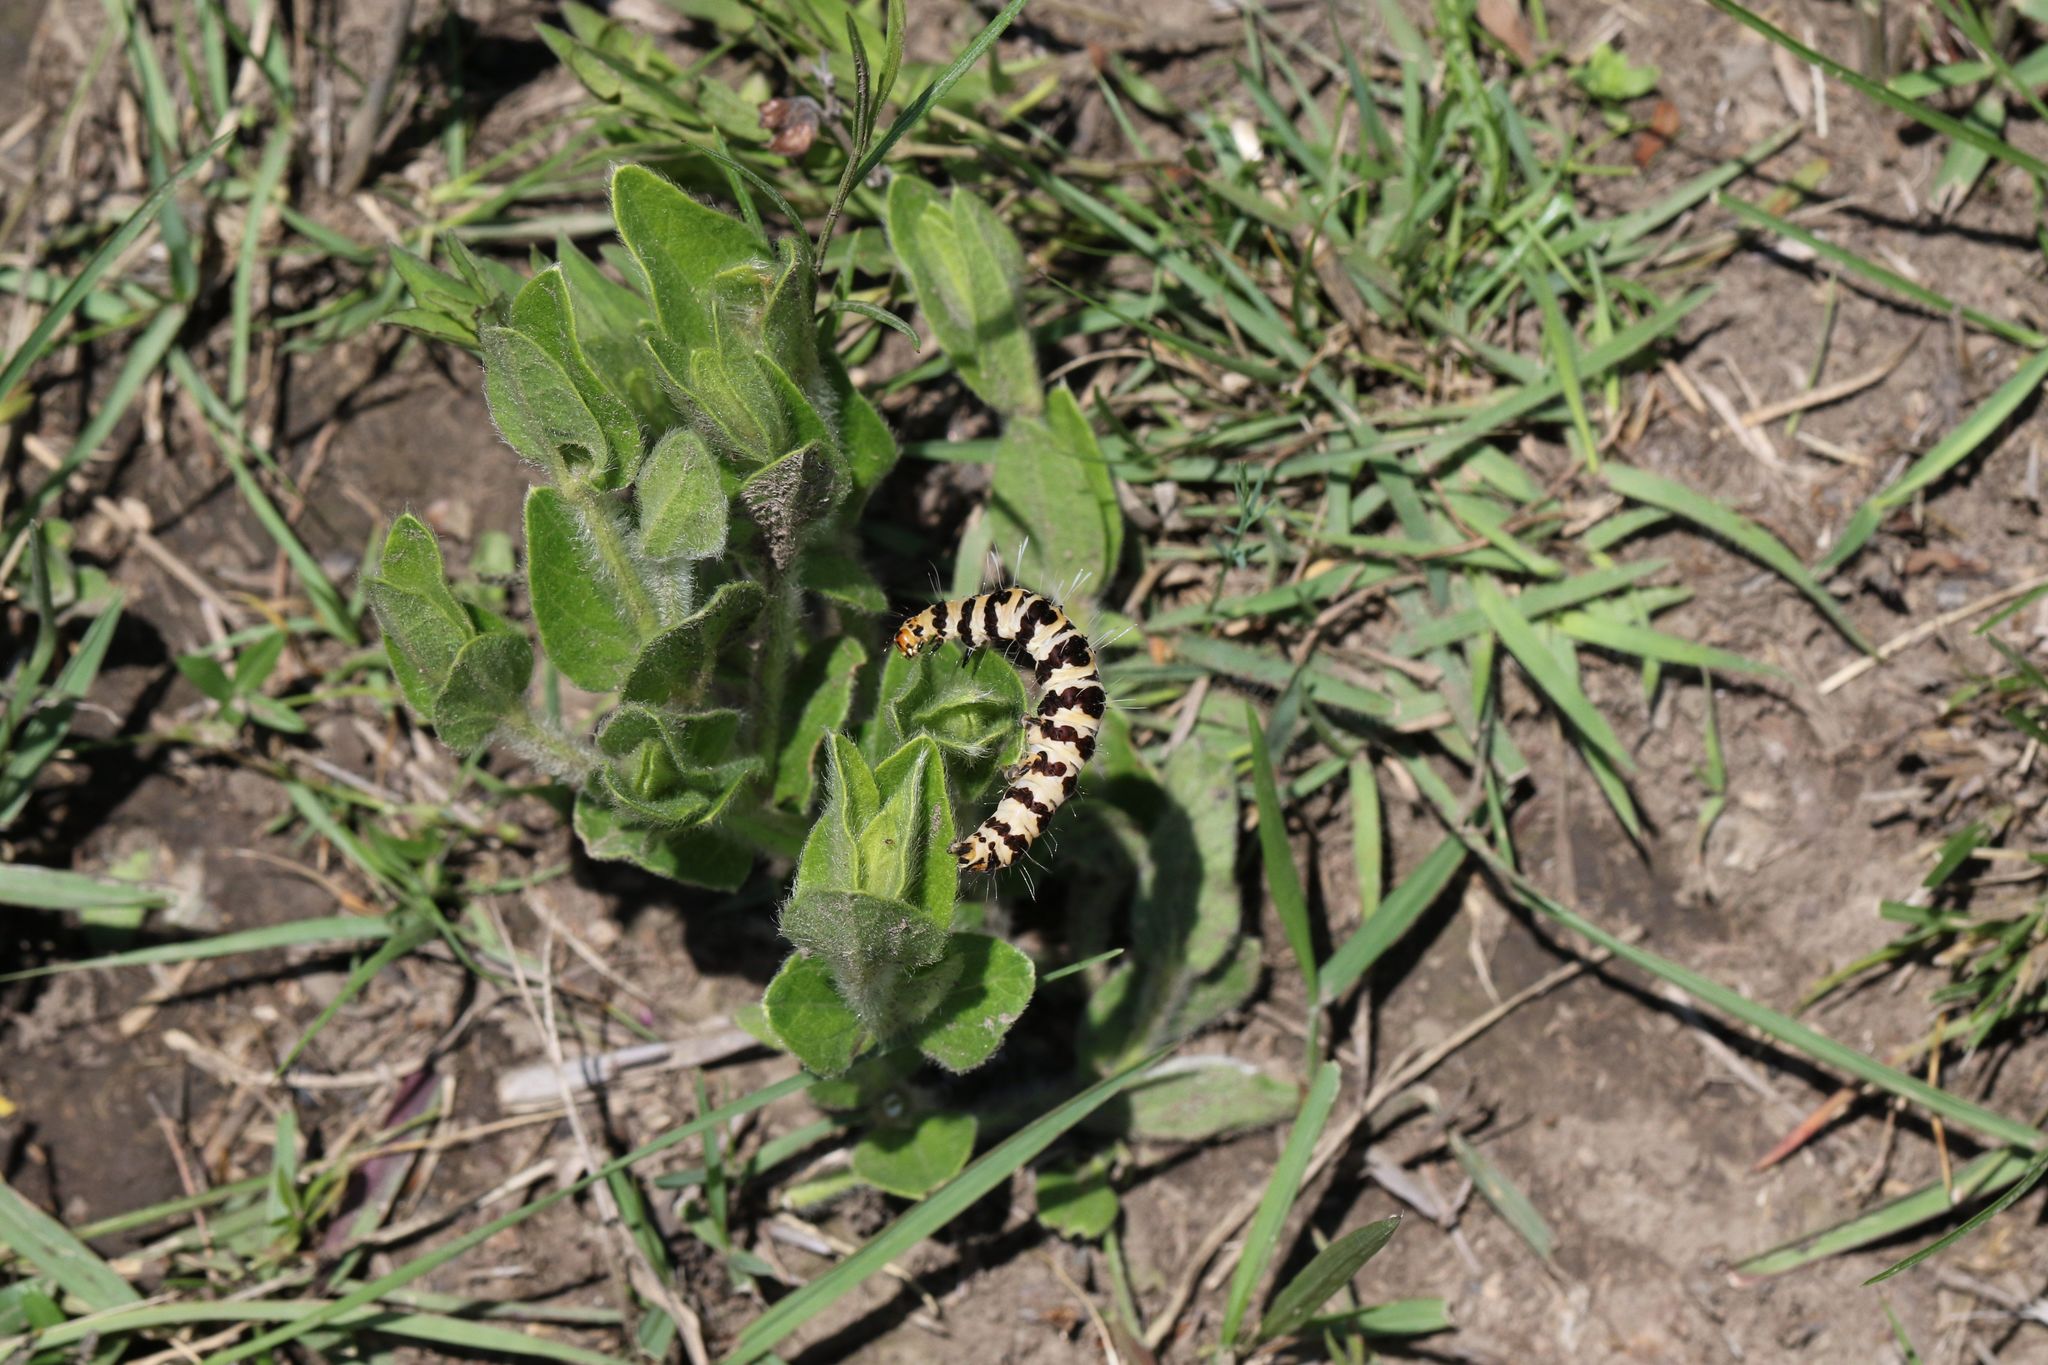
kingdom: Plantae
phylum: Tracheophyta
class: Magnoliopsida
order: Lamiales
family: Acanthaceae
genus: Thunbergia
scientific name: Thunbergia atriplicifolia
